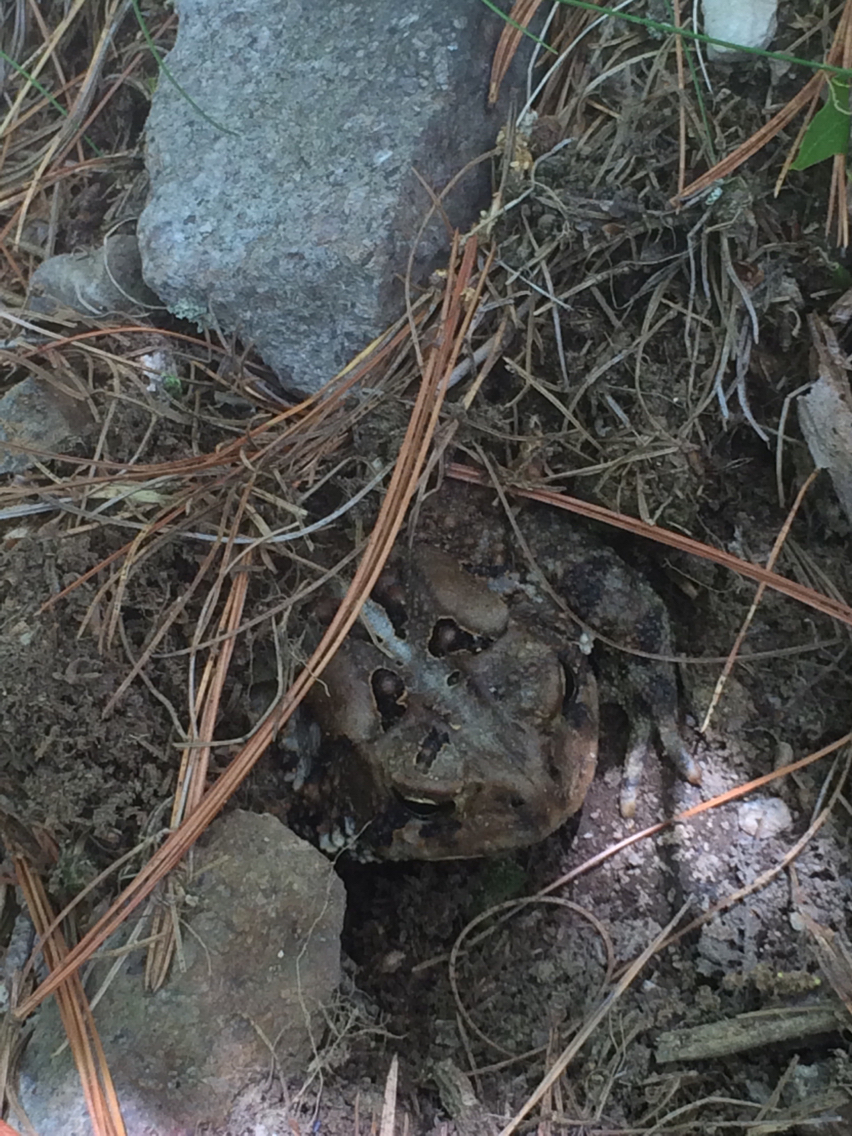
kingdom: Animalia
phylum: Chordata
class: Amphibia
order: Anura
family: Bufonidae
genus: Anaxyrus
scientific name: Anaxyrus americanus
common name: American toad
